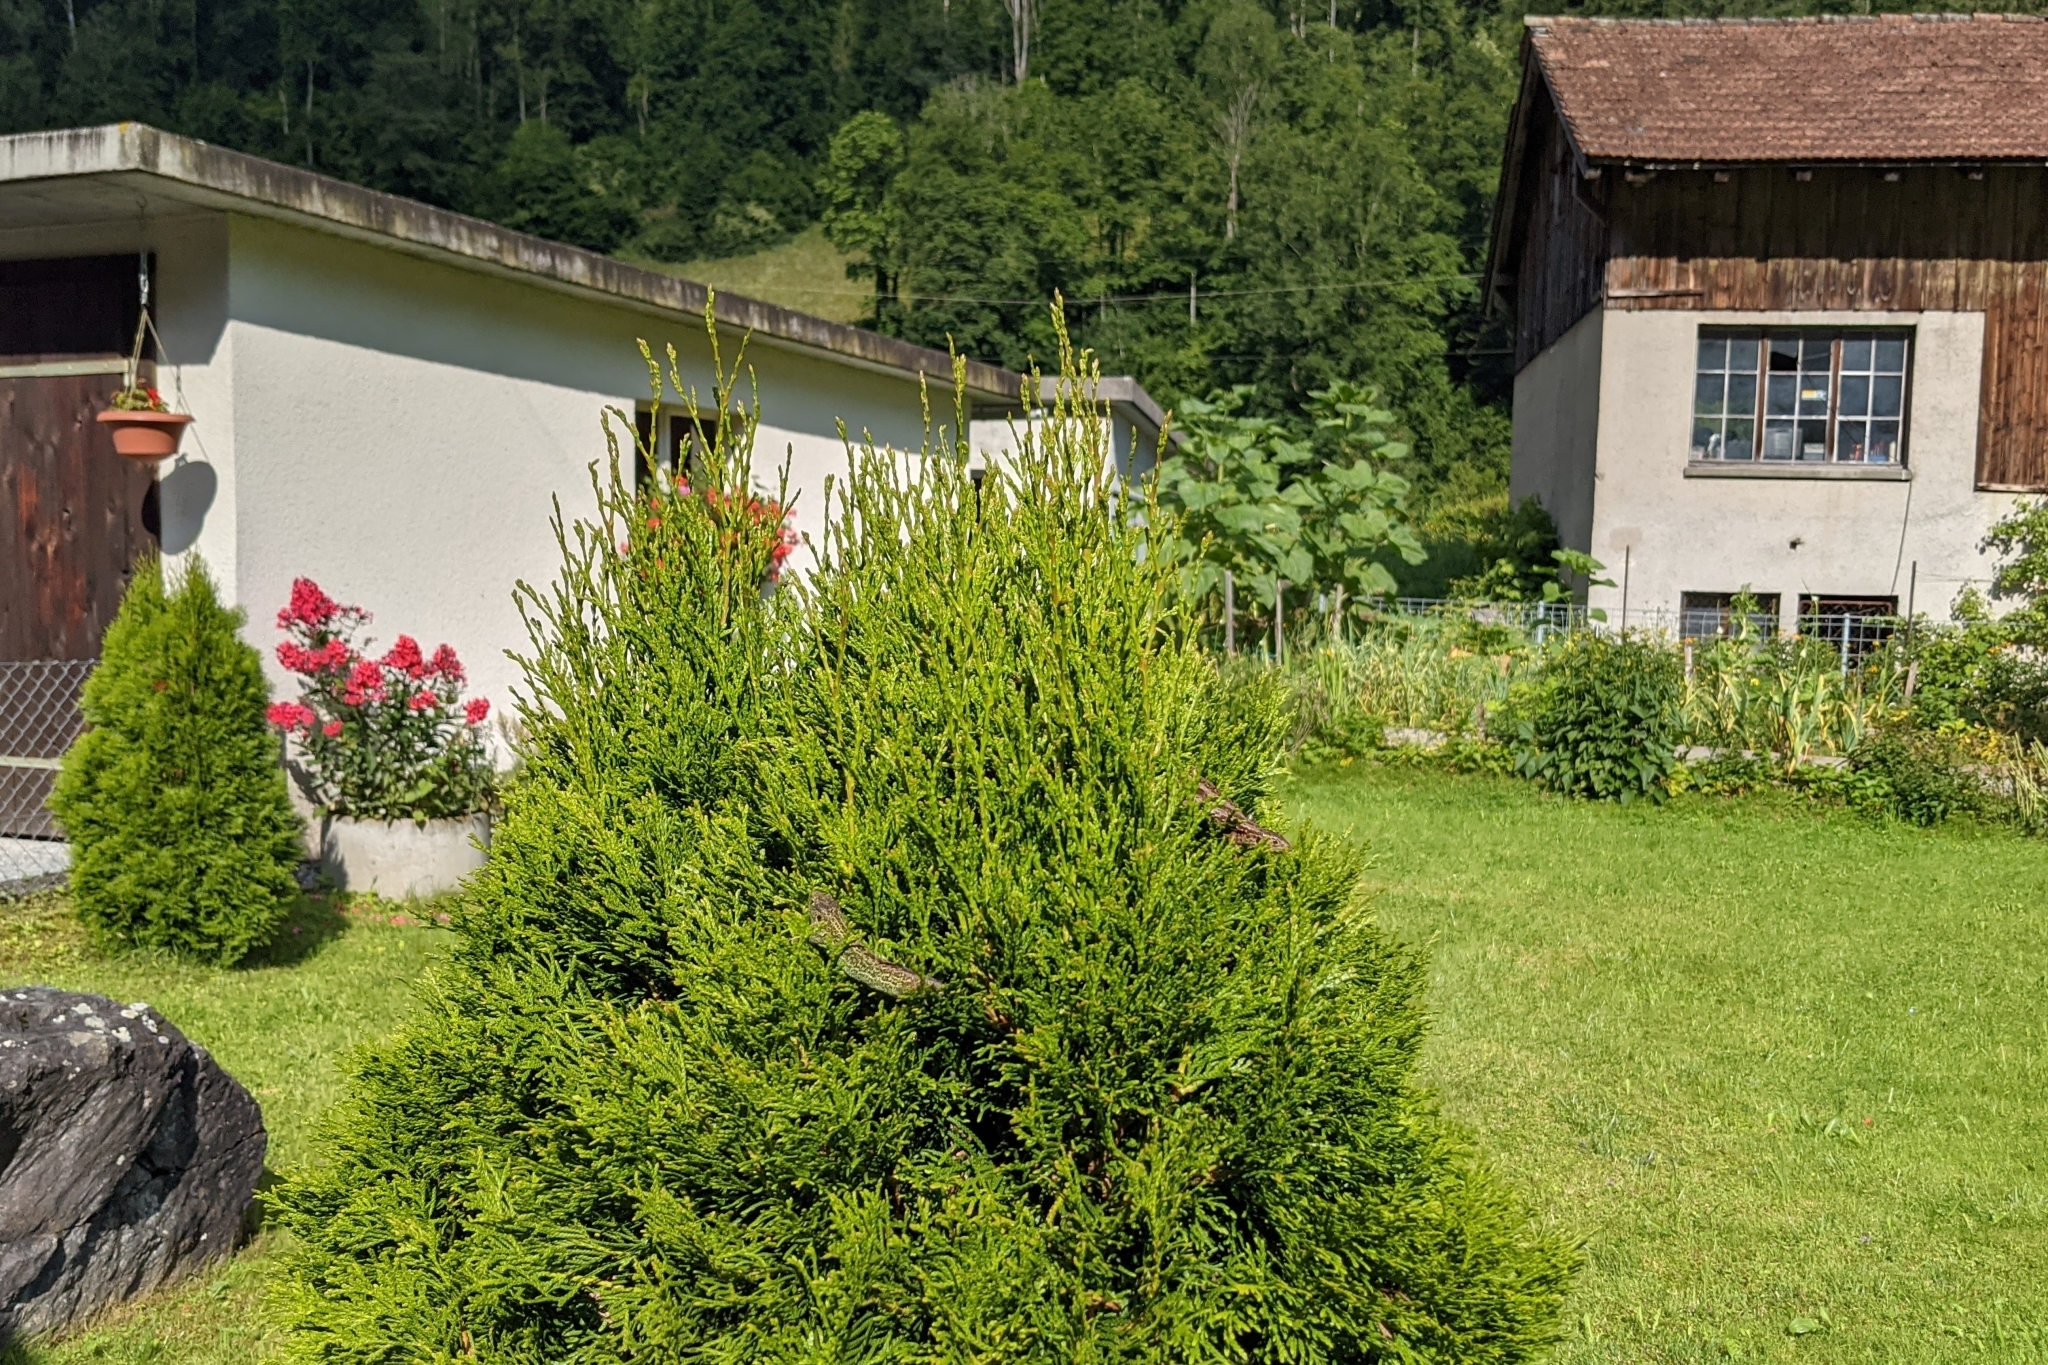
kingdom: Animalia
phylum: Chordata
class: Squamata
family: Lacertidae
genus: Lacerta
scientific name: Lacerta agilis
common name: Sand lizard
